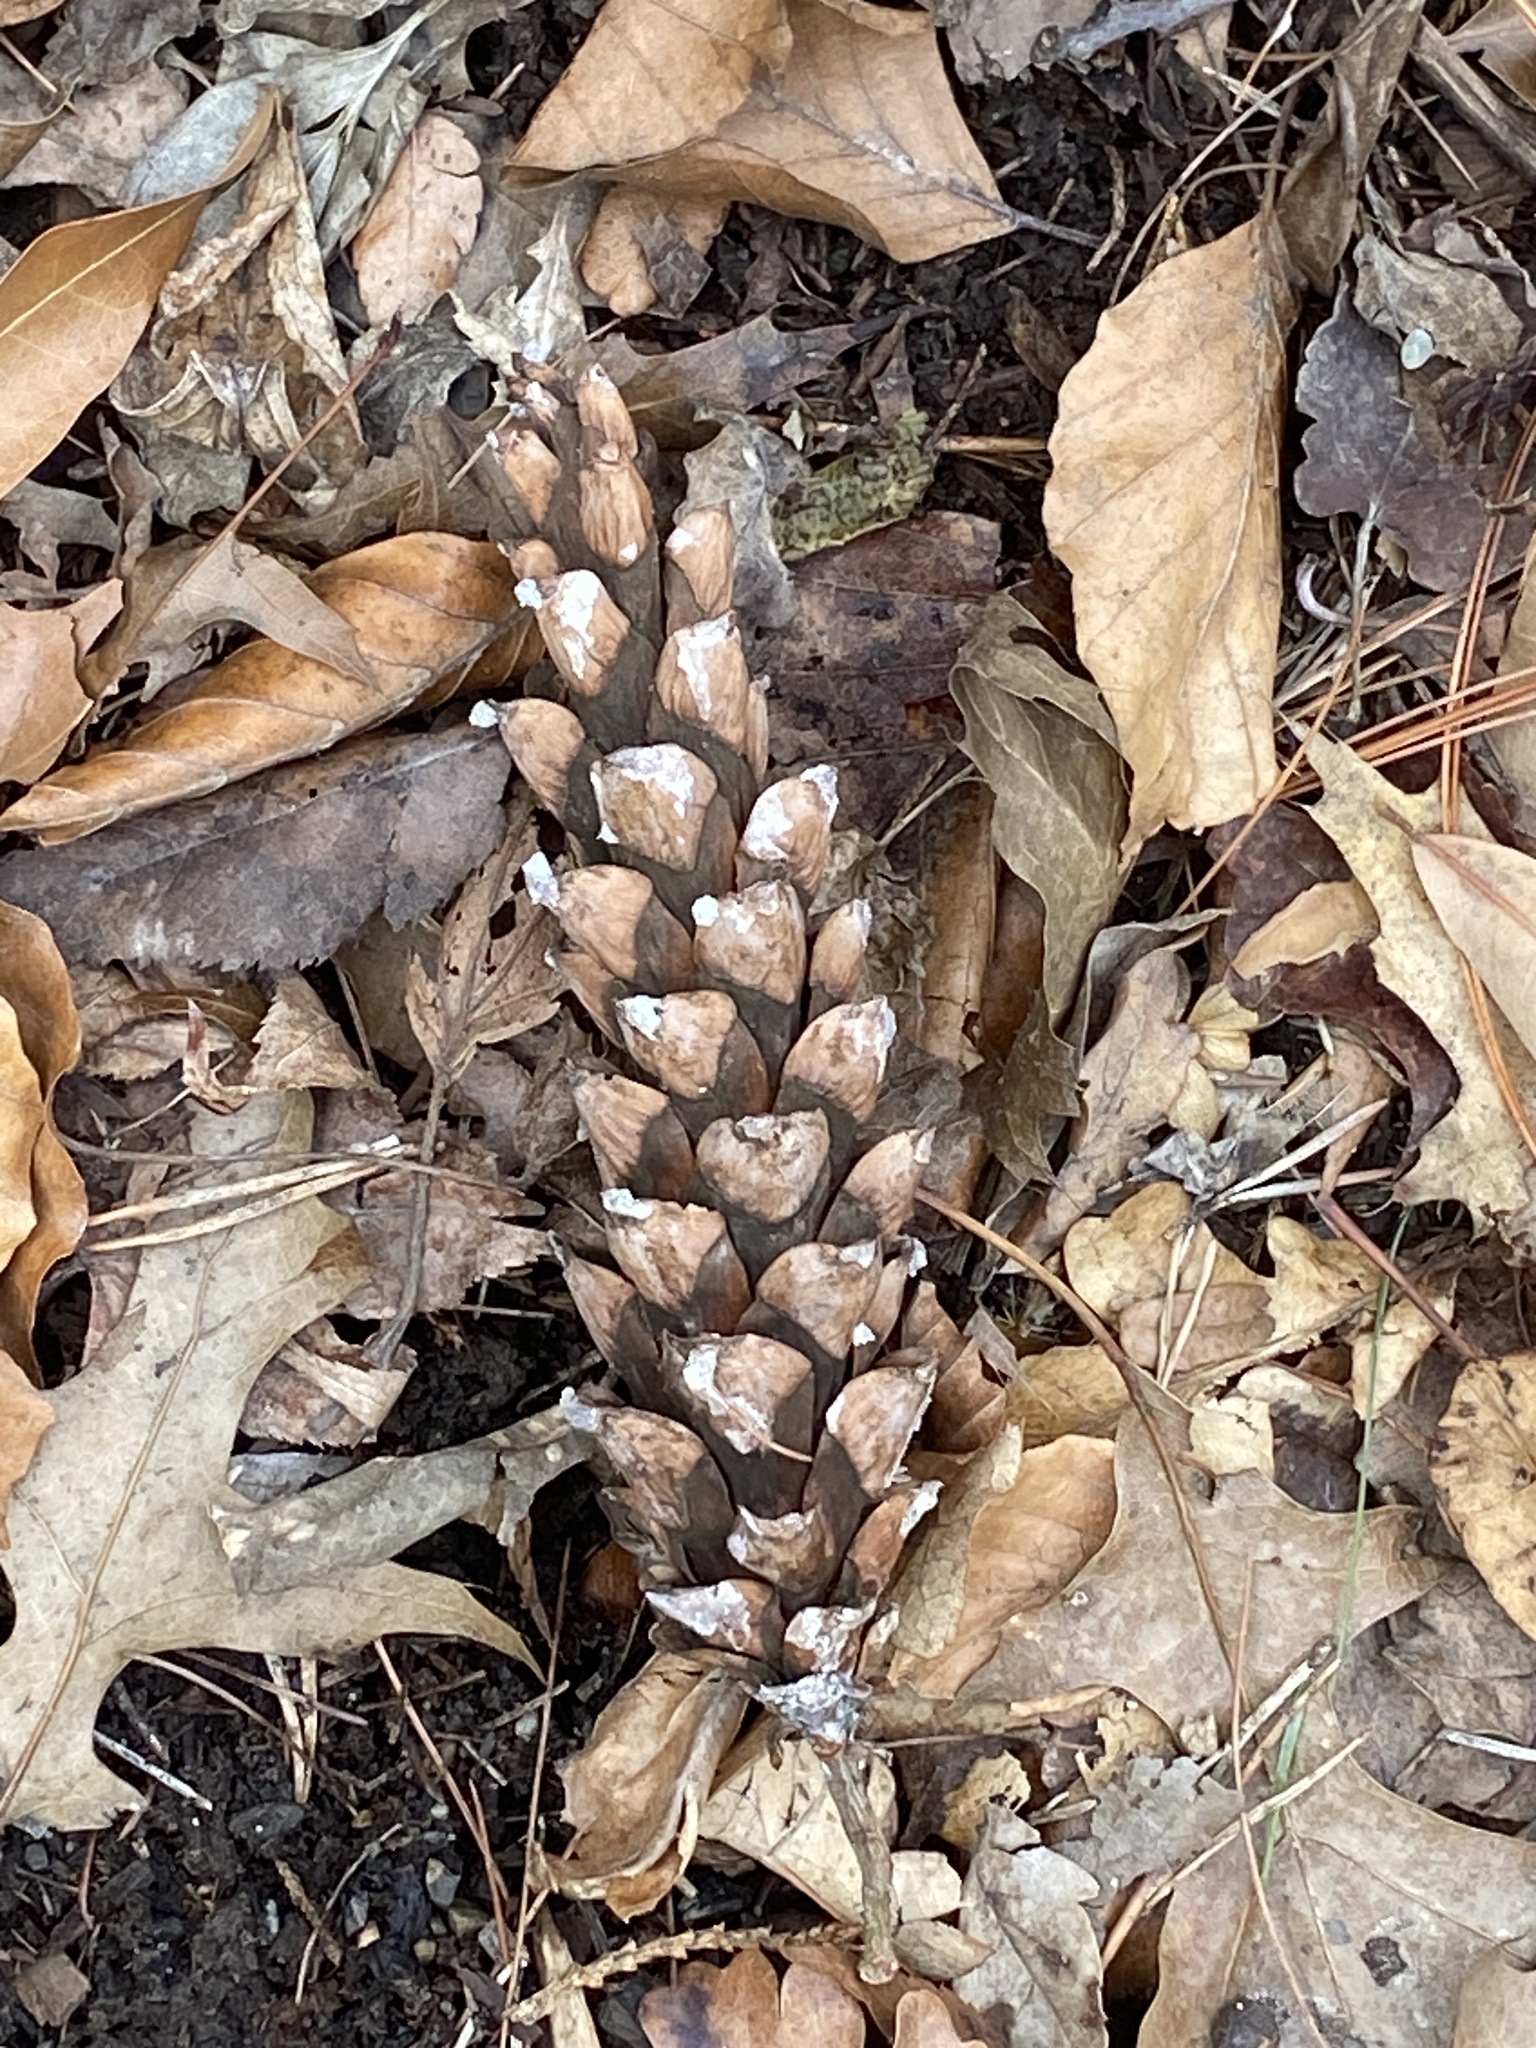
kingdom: Plantae
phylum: Tracheophyta
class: Pinopsida
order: Pinales
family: Pinaceae
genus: Pinus
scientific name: Pinus strobus
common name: Weymouth pine
